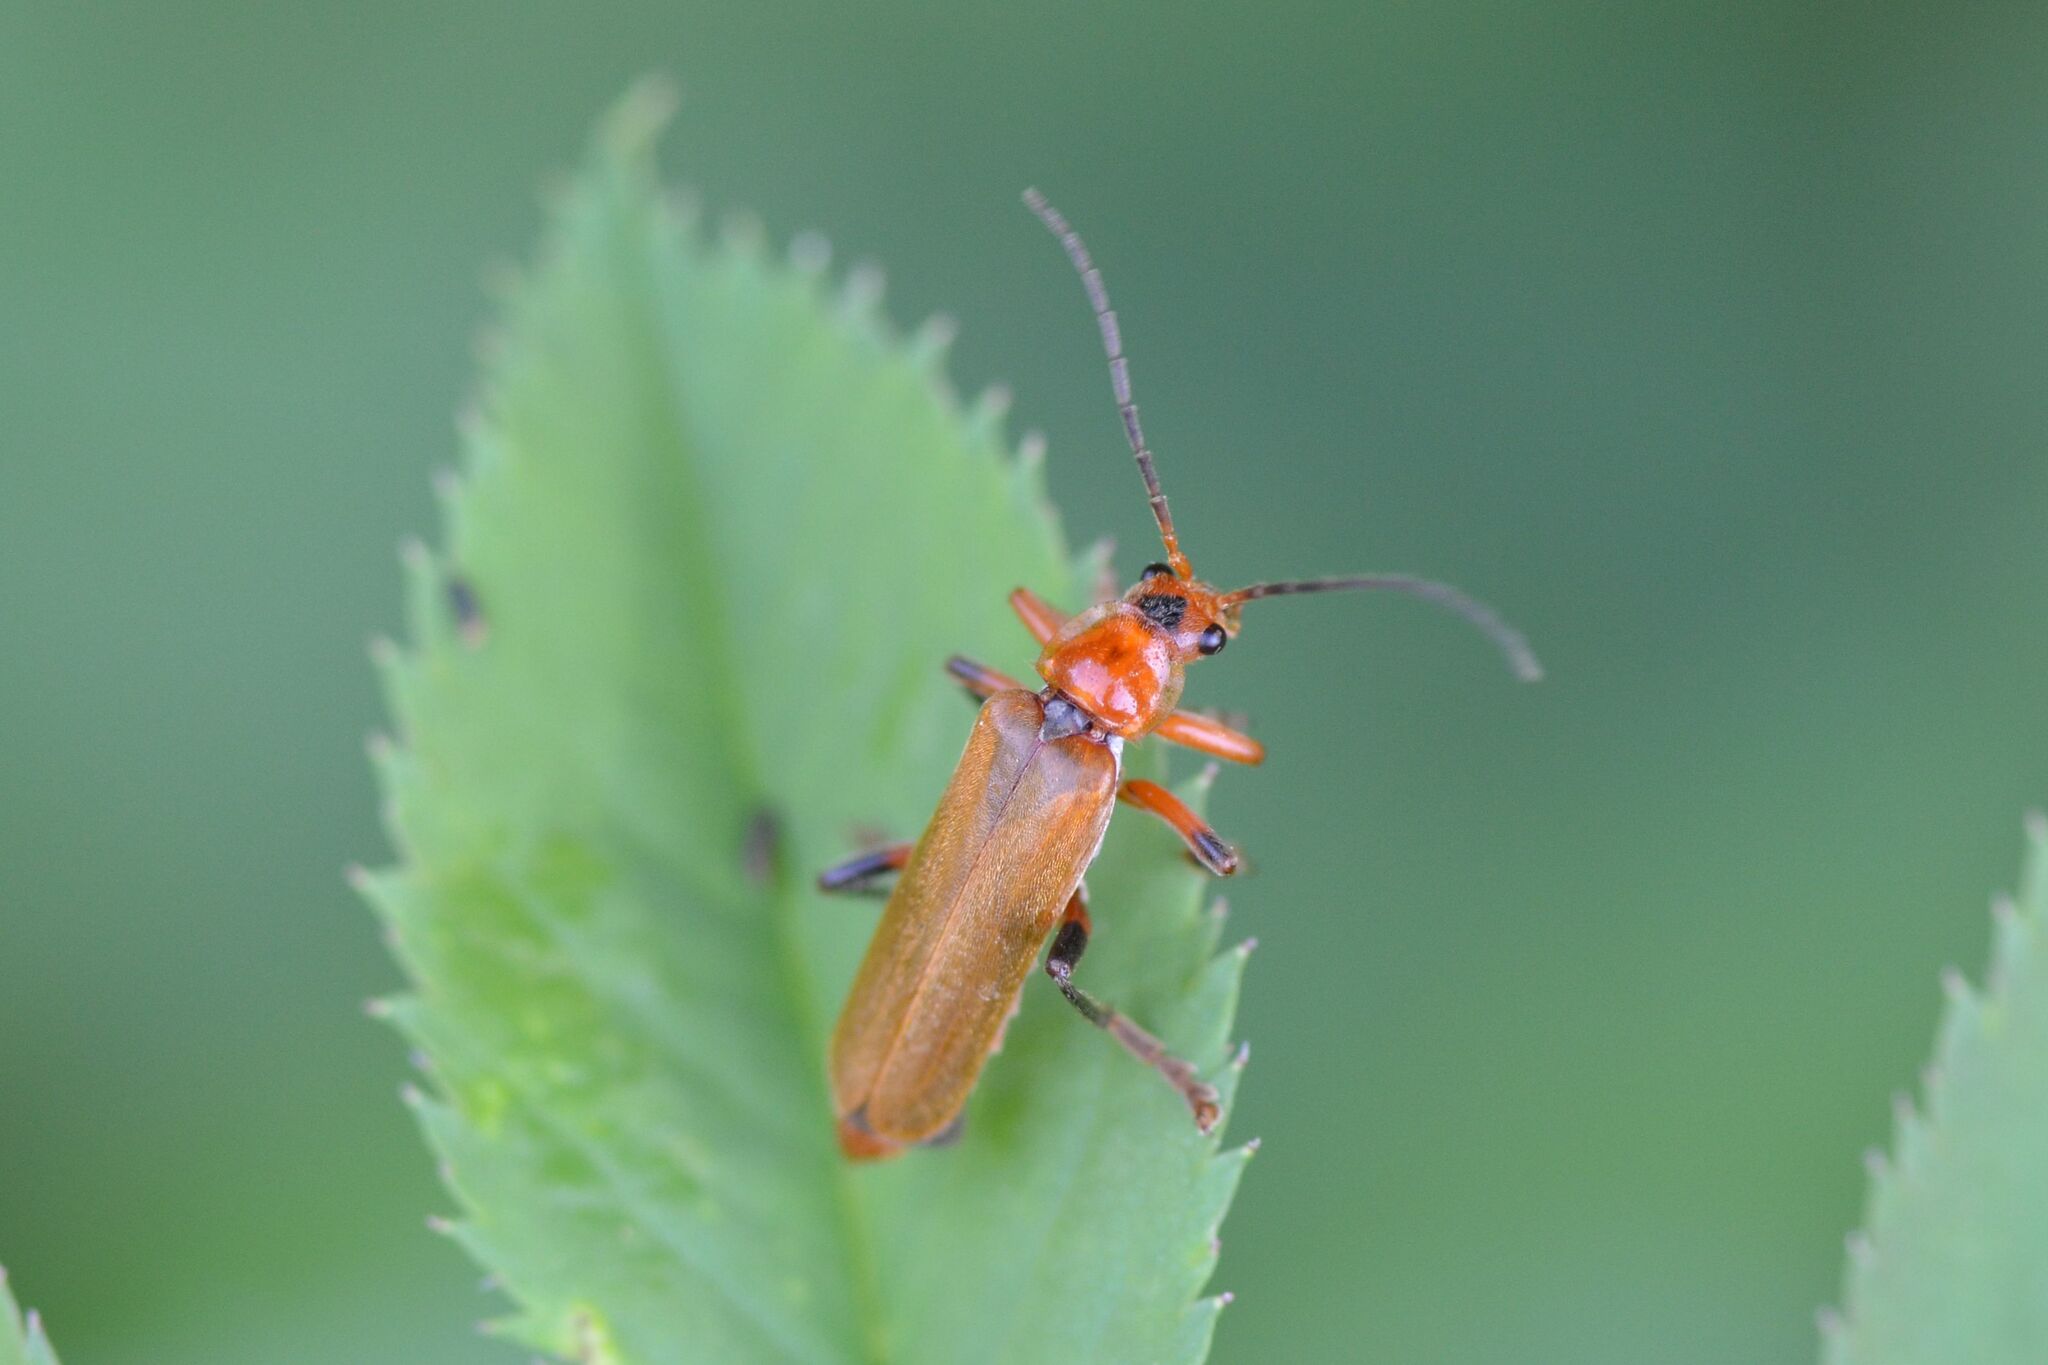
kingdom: Animalia
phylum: Arthropoda
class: Insecta
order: Coleoptera
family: Cantharidae
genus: Cantharis
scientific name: Cantharis livida
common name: Livid soldier beetle
